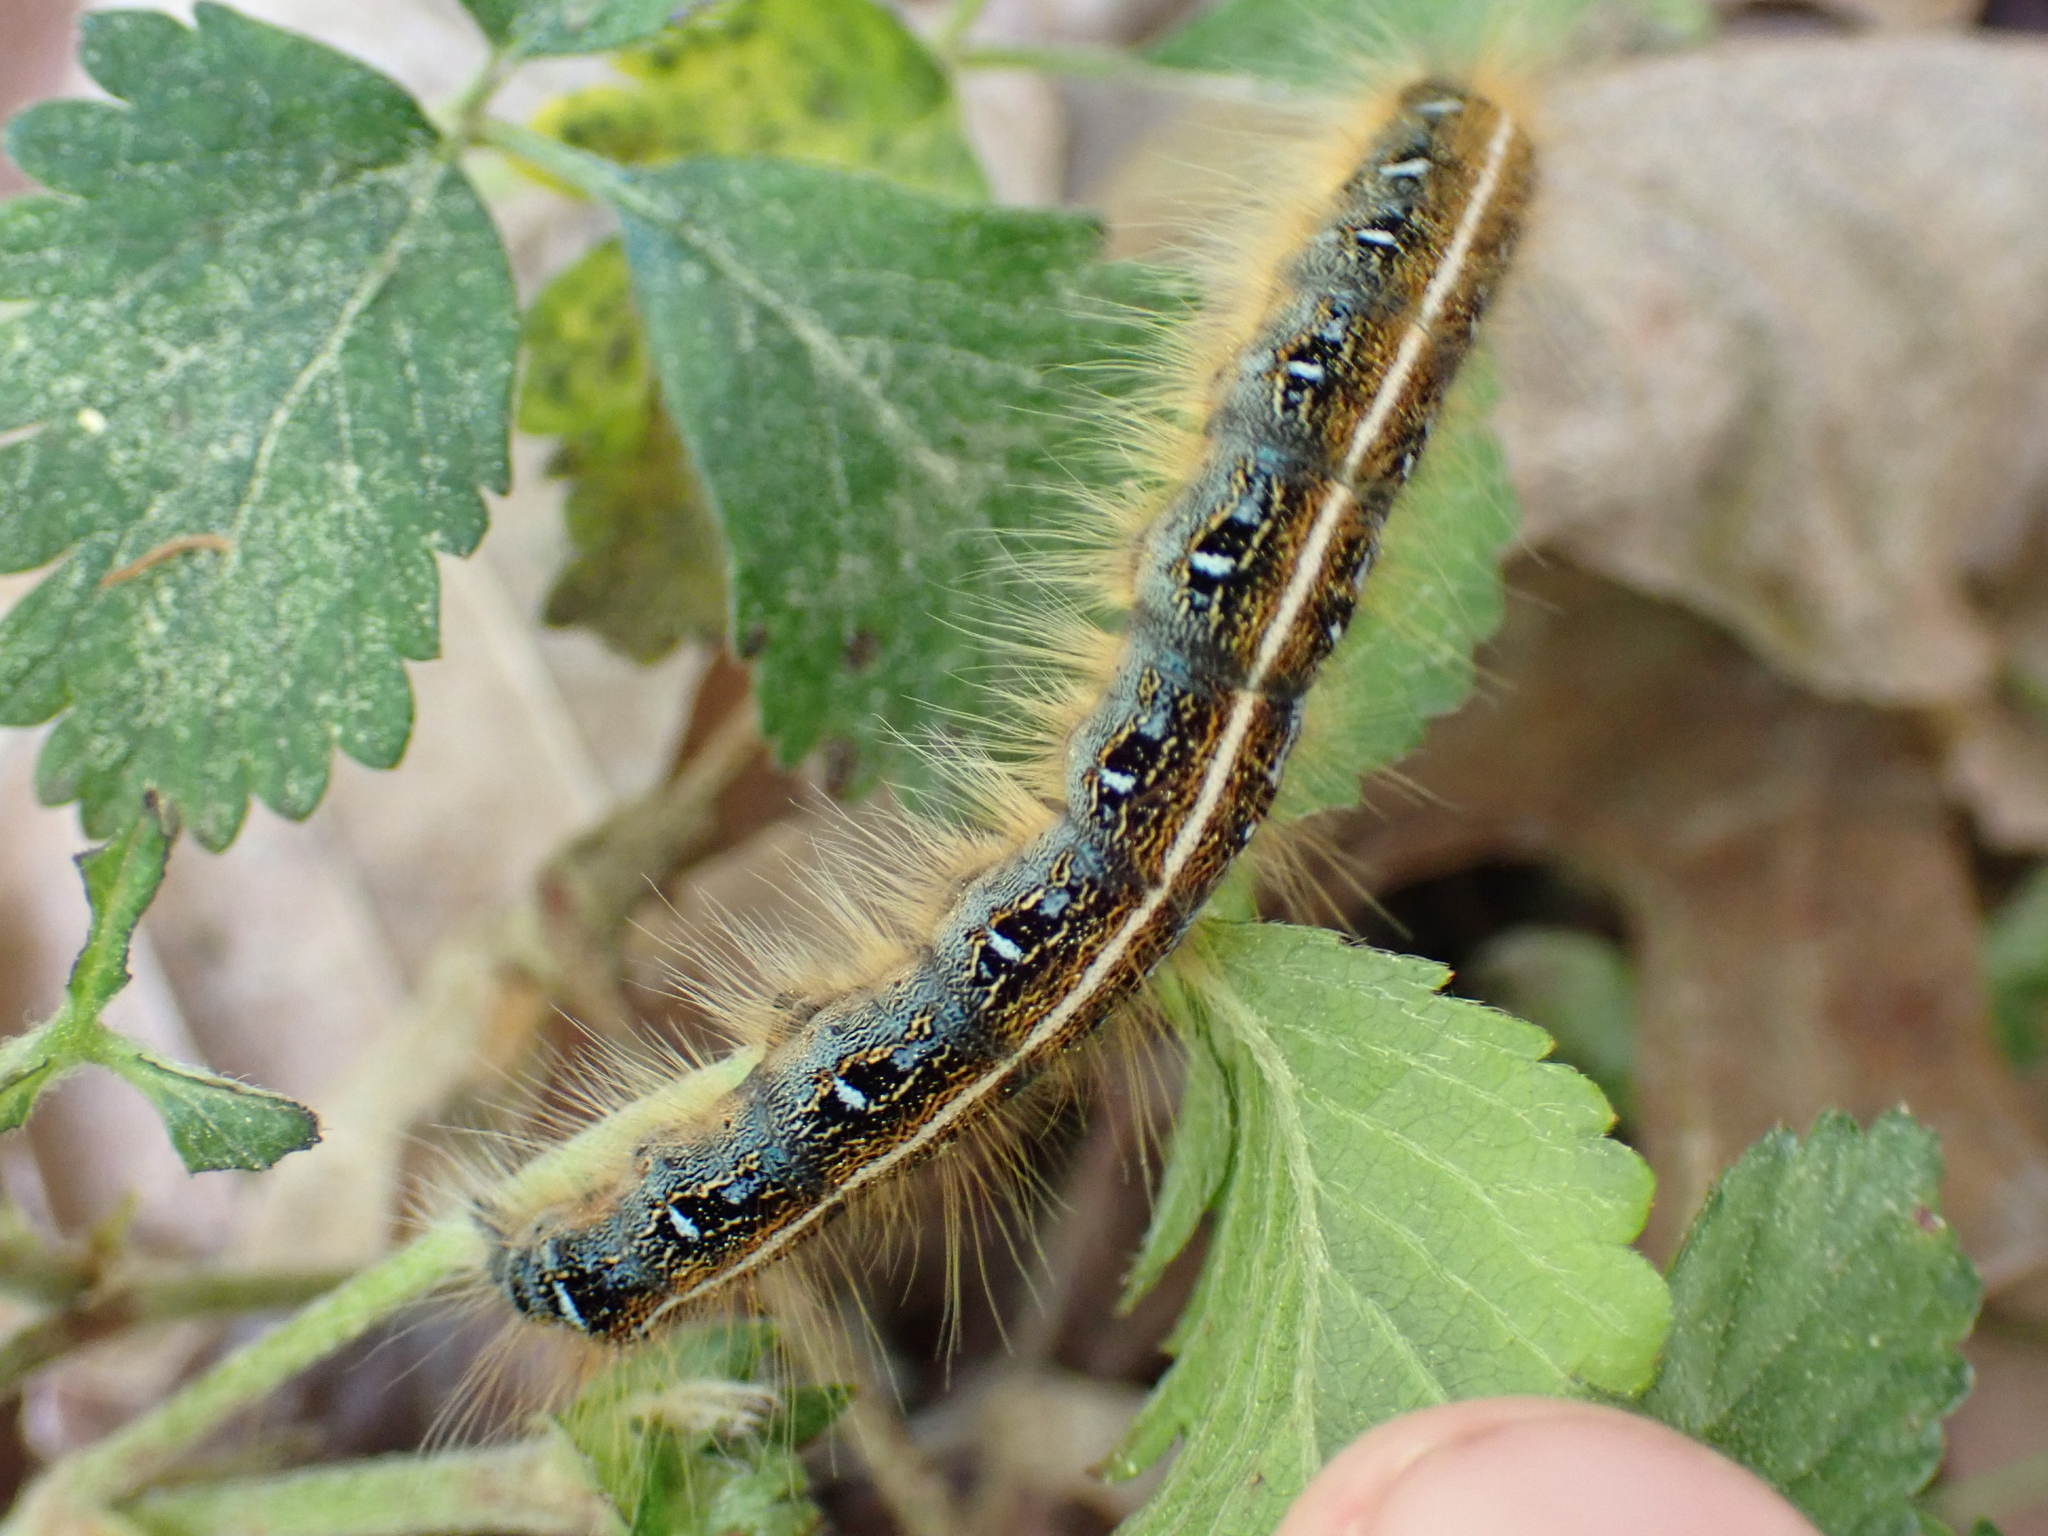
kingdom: Animalia
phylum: Arthropoda
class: Insecta
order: Lepidoptera
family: Lasiocampidae
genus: Malacosoma
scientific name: Malacosoma americana
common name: Eastern tent caterpillar moth
